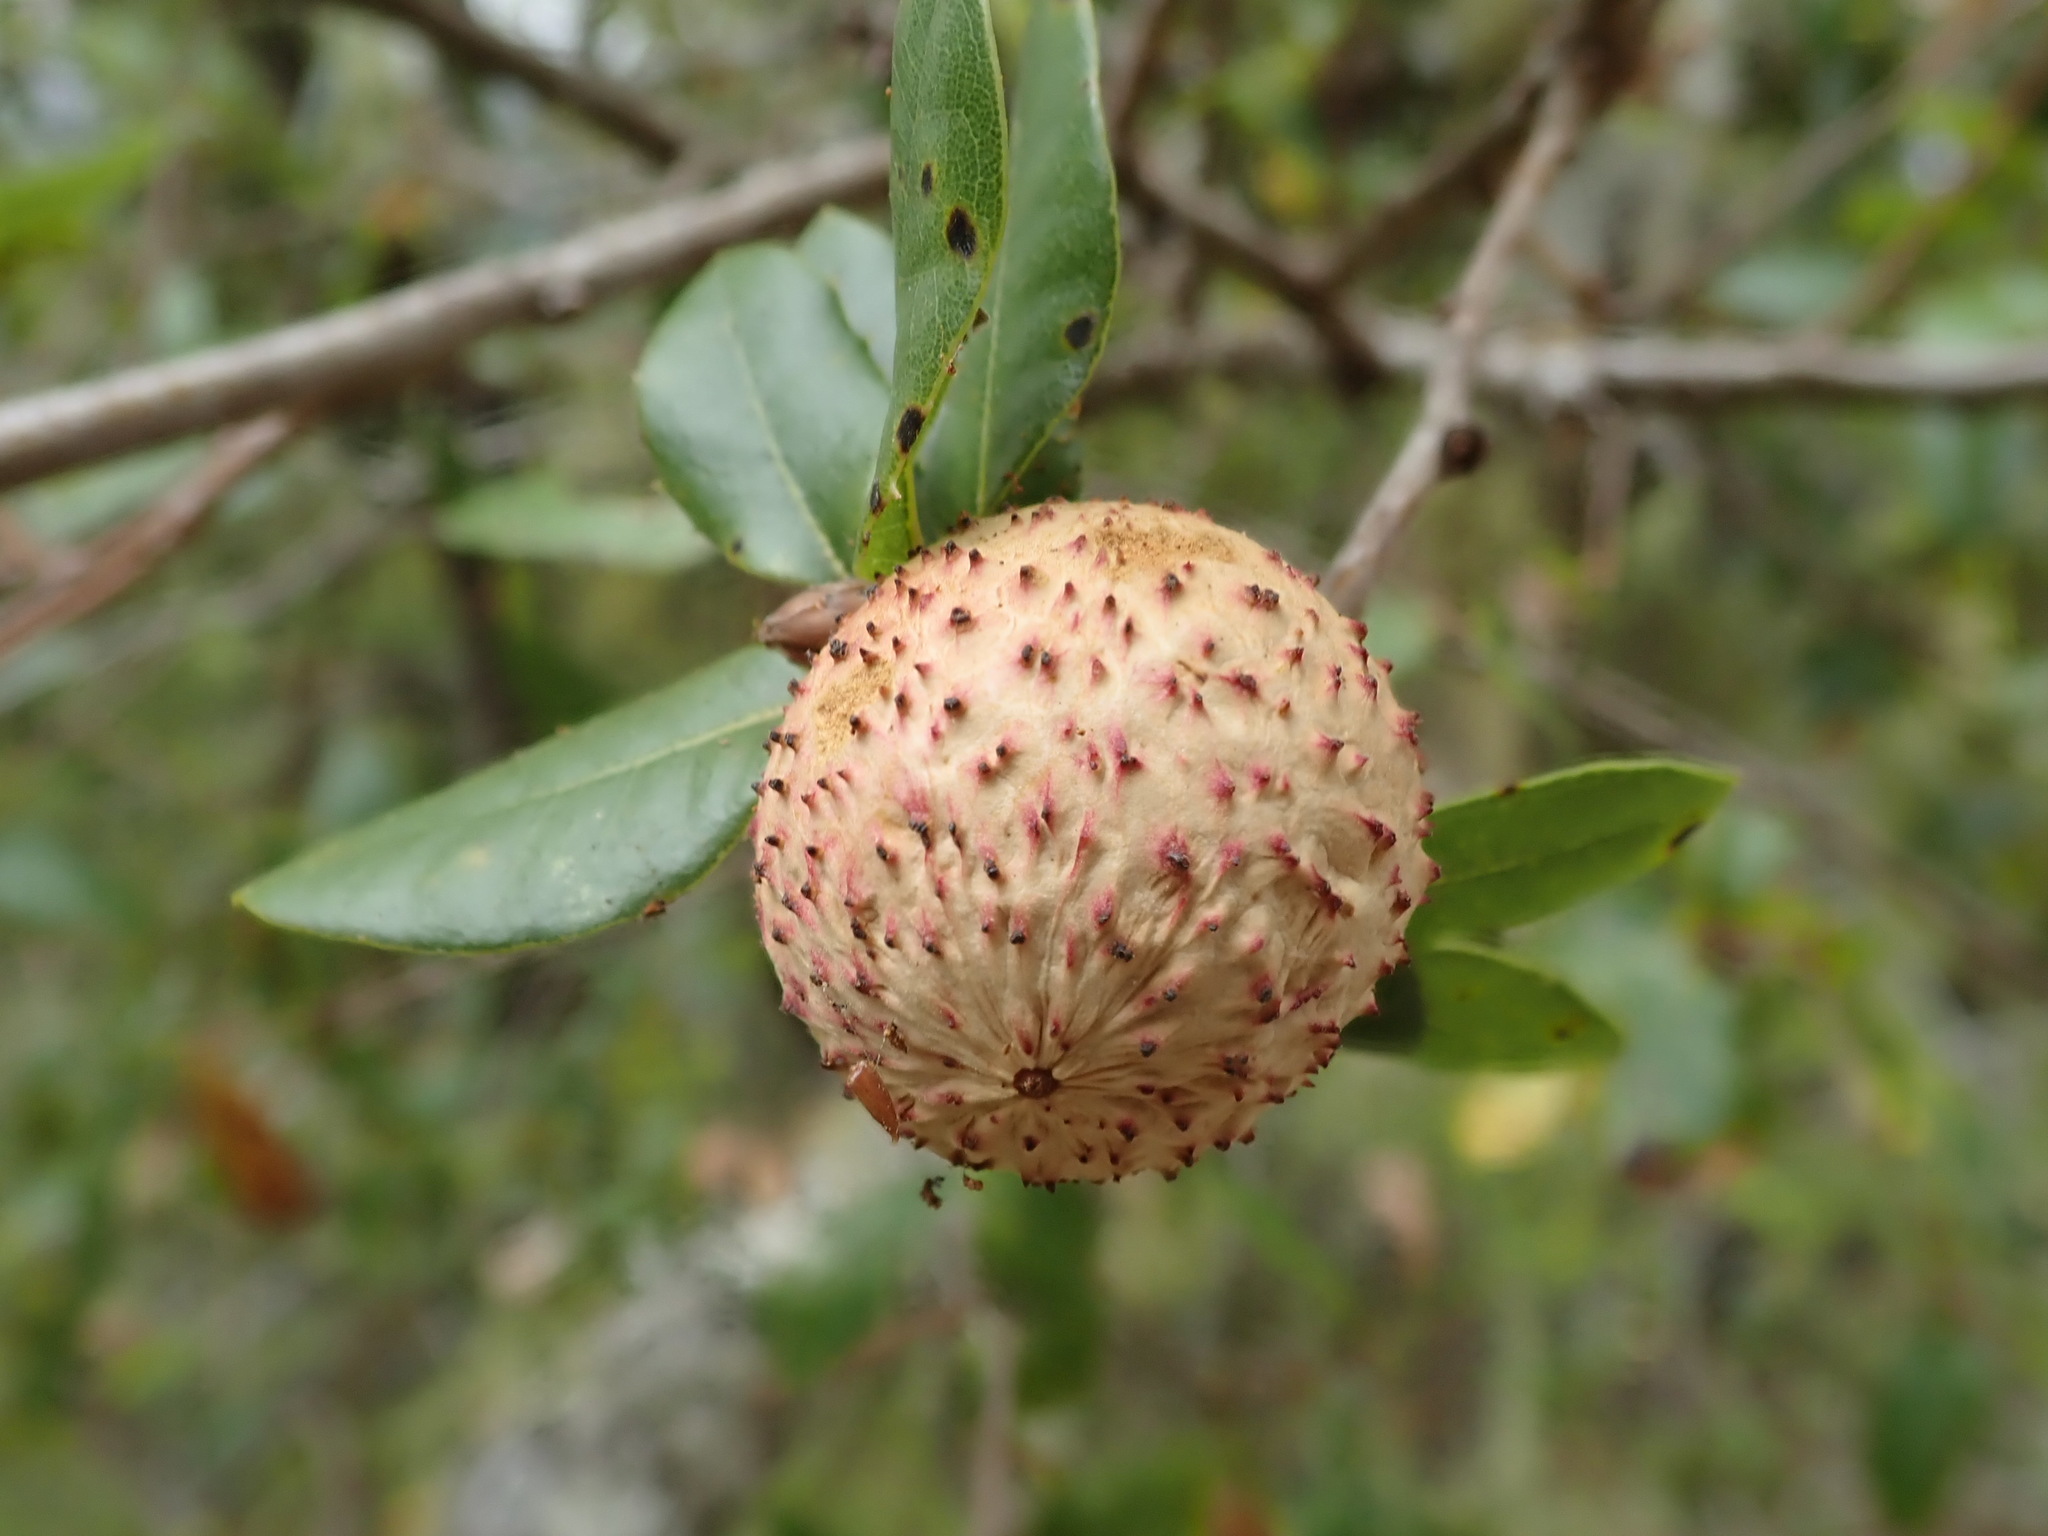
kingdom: Animalia
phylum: Arthropoda
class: Insecta
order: Hymenoptera
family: Cynipidae
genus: Amphibolips
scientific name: Amphibolips quercuspomiformis
